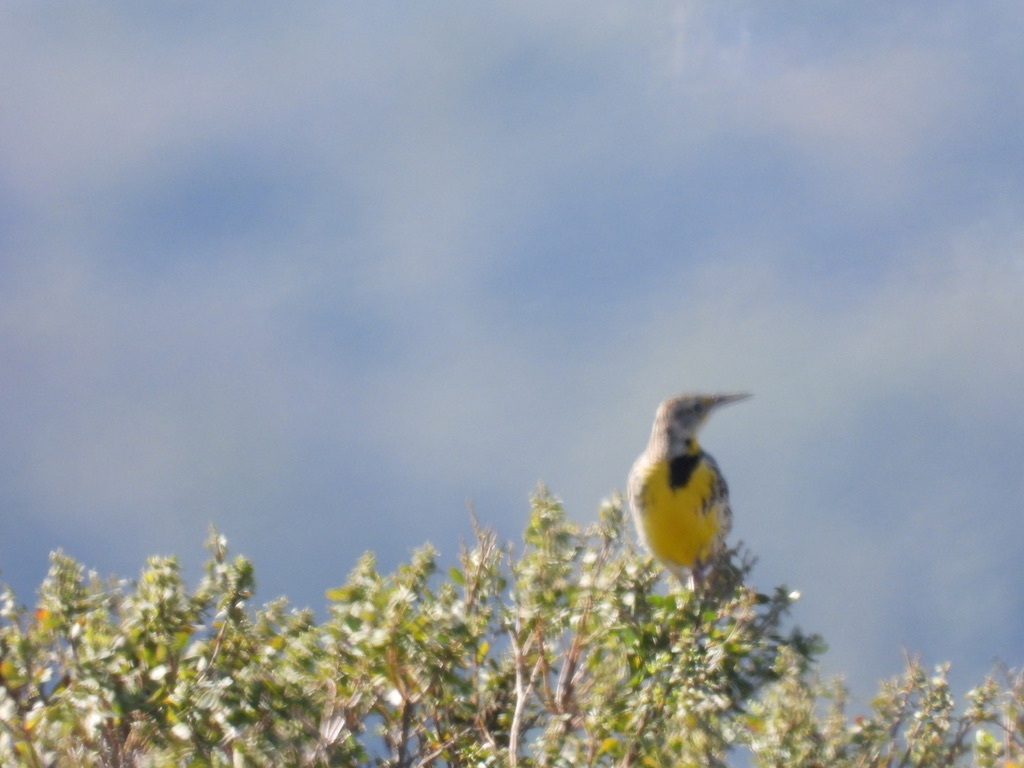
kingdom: Animalia
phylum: Chordata
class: Aves
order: Passeriformes
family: Icteridae
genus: Sturnella
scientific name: Sturnella neglecta
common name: Western meadowlark
